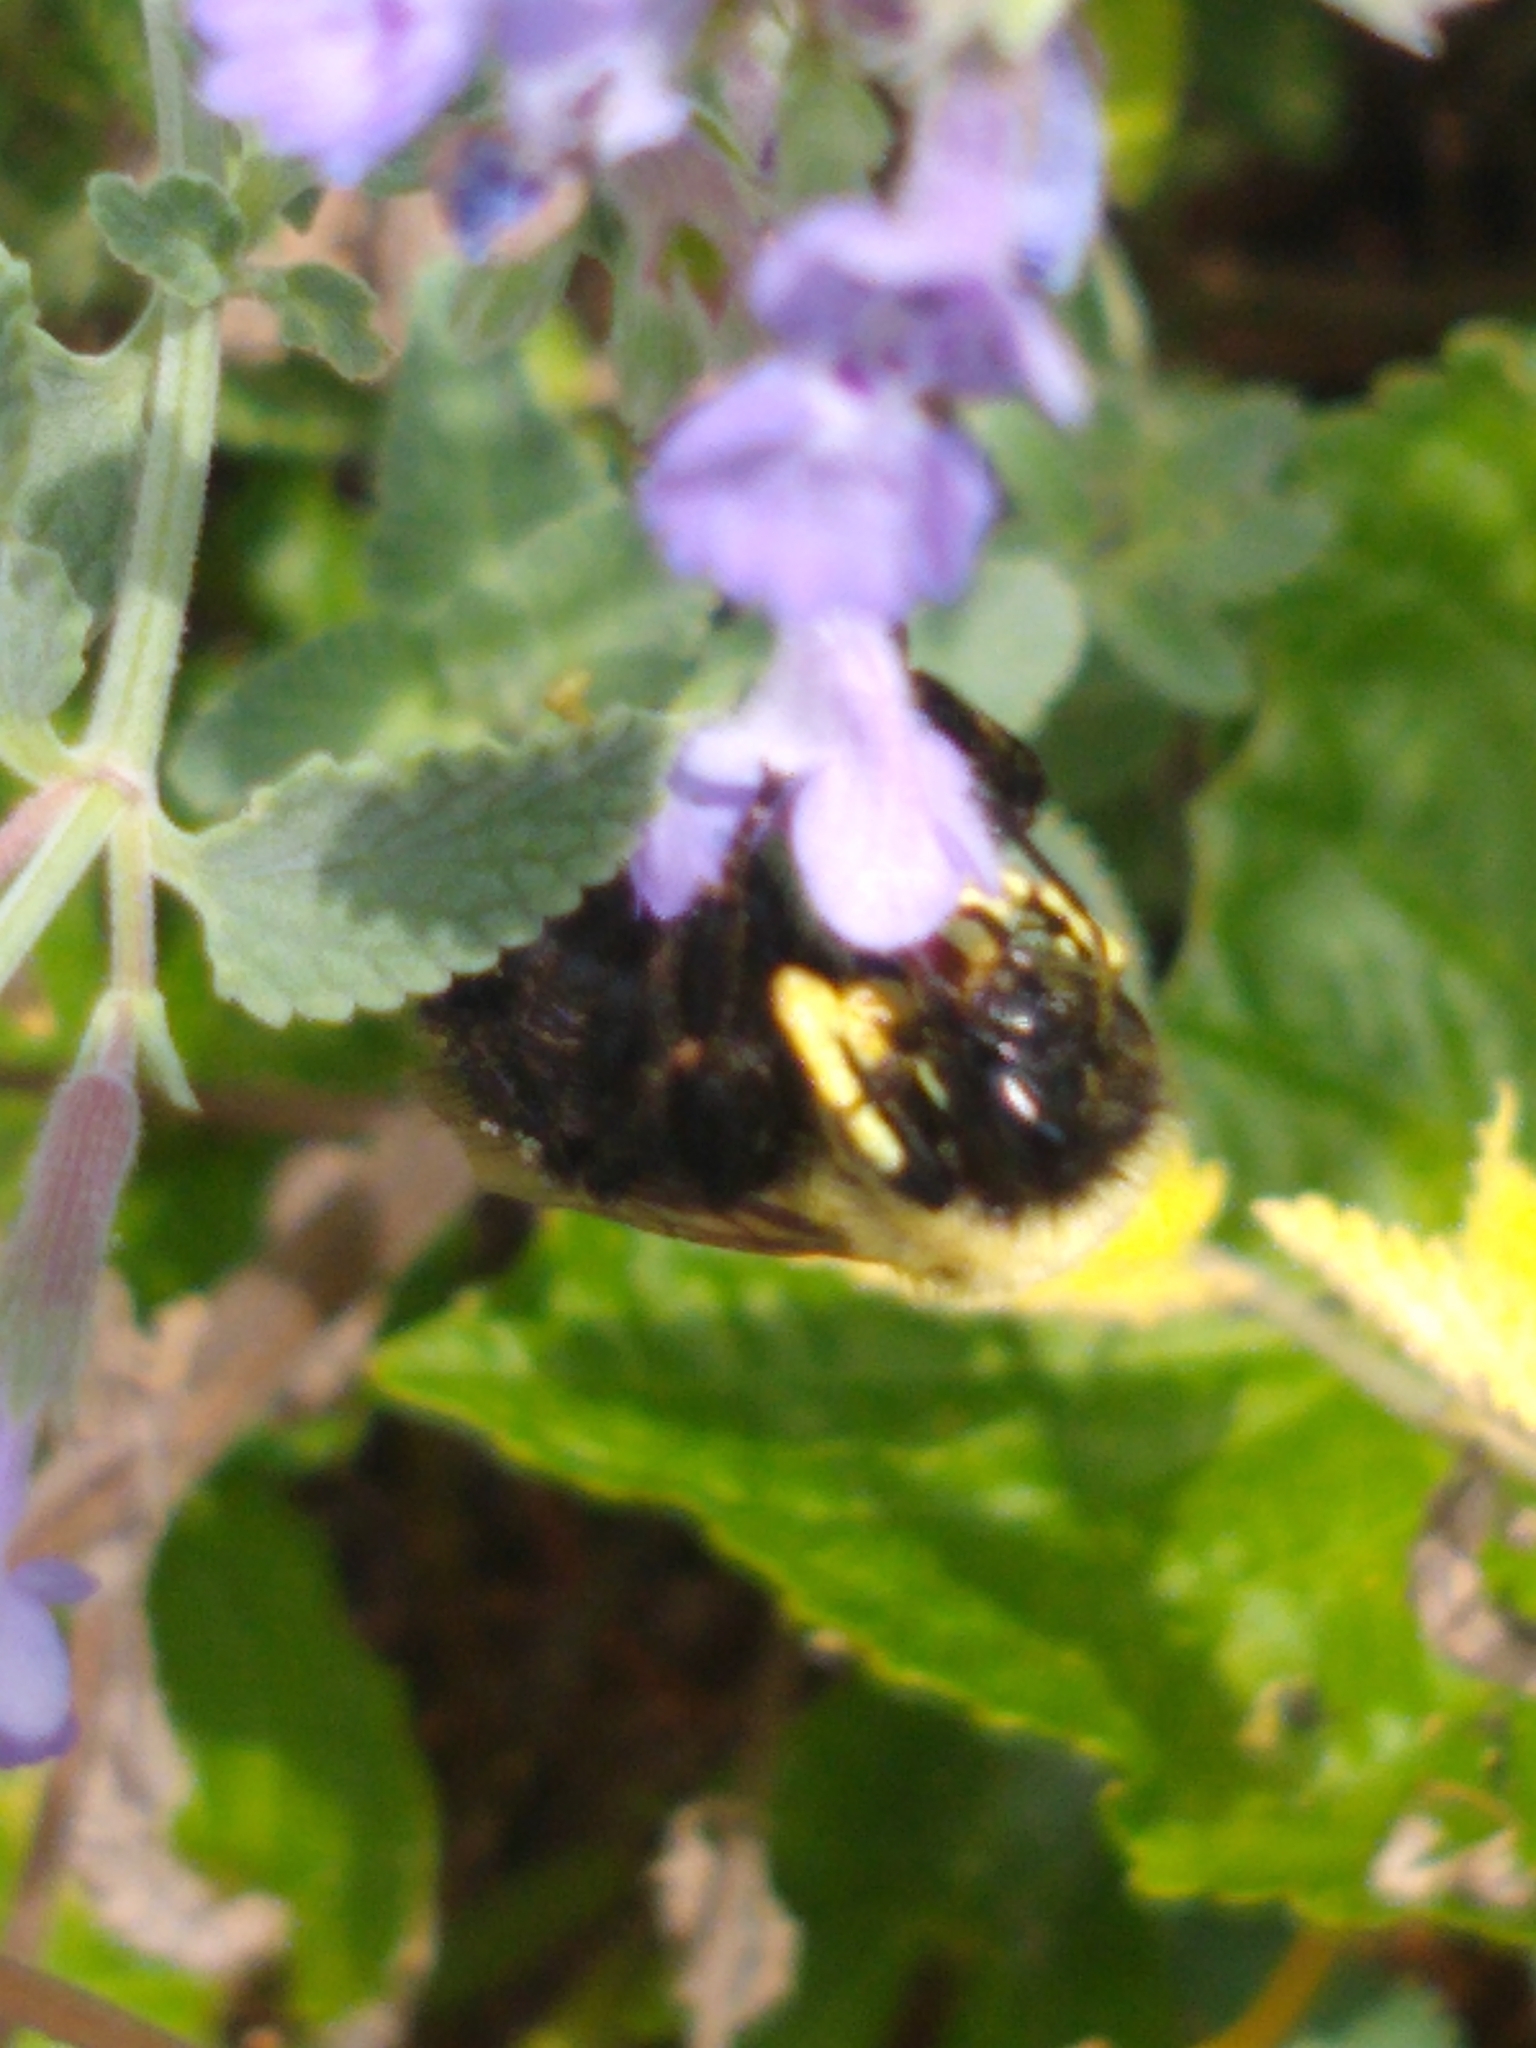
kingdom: Animalia
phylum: Arthropoda
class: Insecta
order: Hymenoptera
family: Apidae
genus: Bombus
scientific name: Bombus impatiens
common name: Common eastern bumble bee
